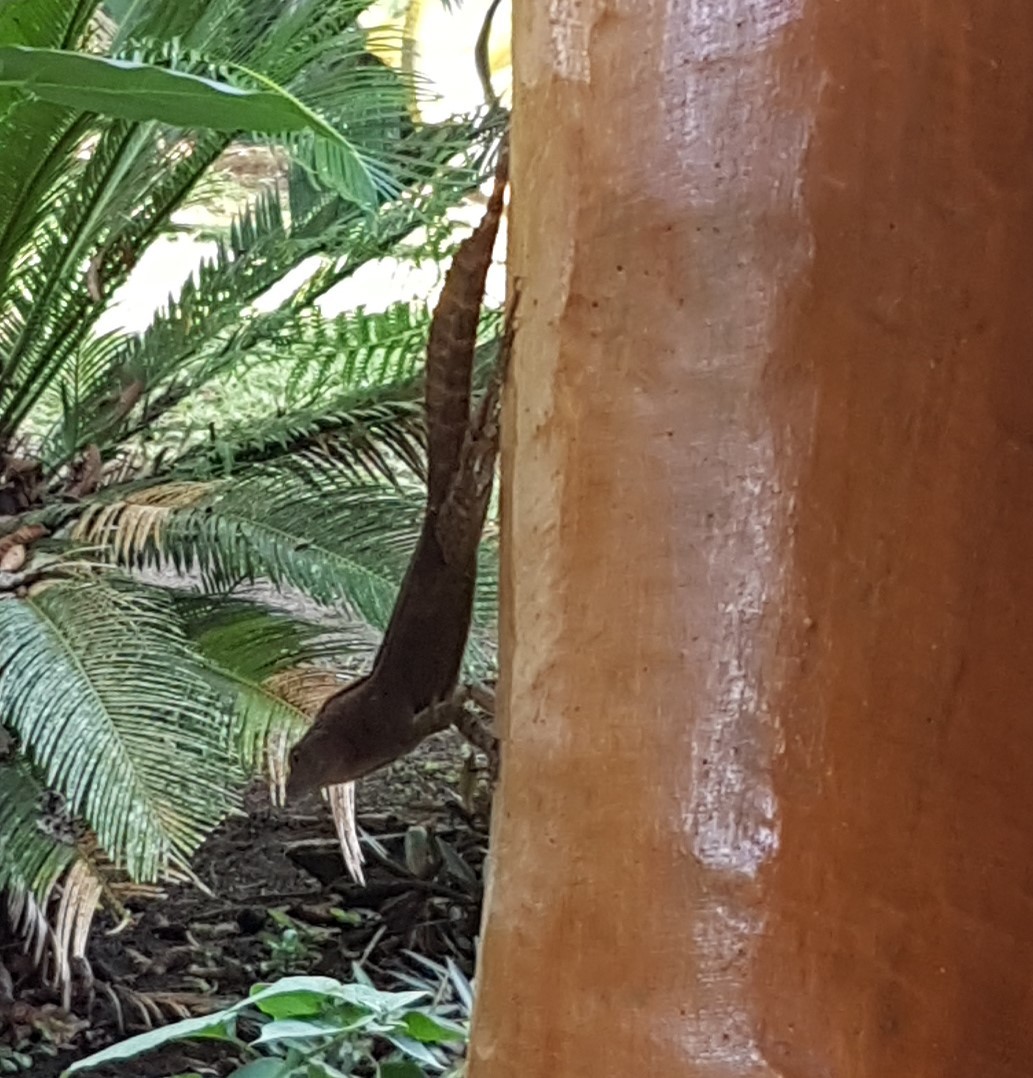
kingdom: Animalia
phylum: Chordata
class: Squamata
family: Dactyloidae
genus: Anolis
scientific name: Anolis cristatellus
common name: Crested anole
